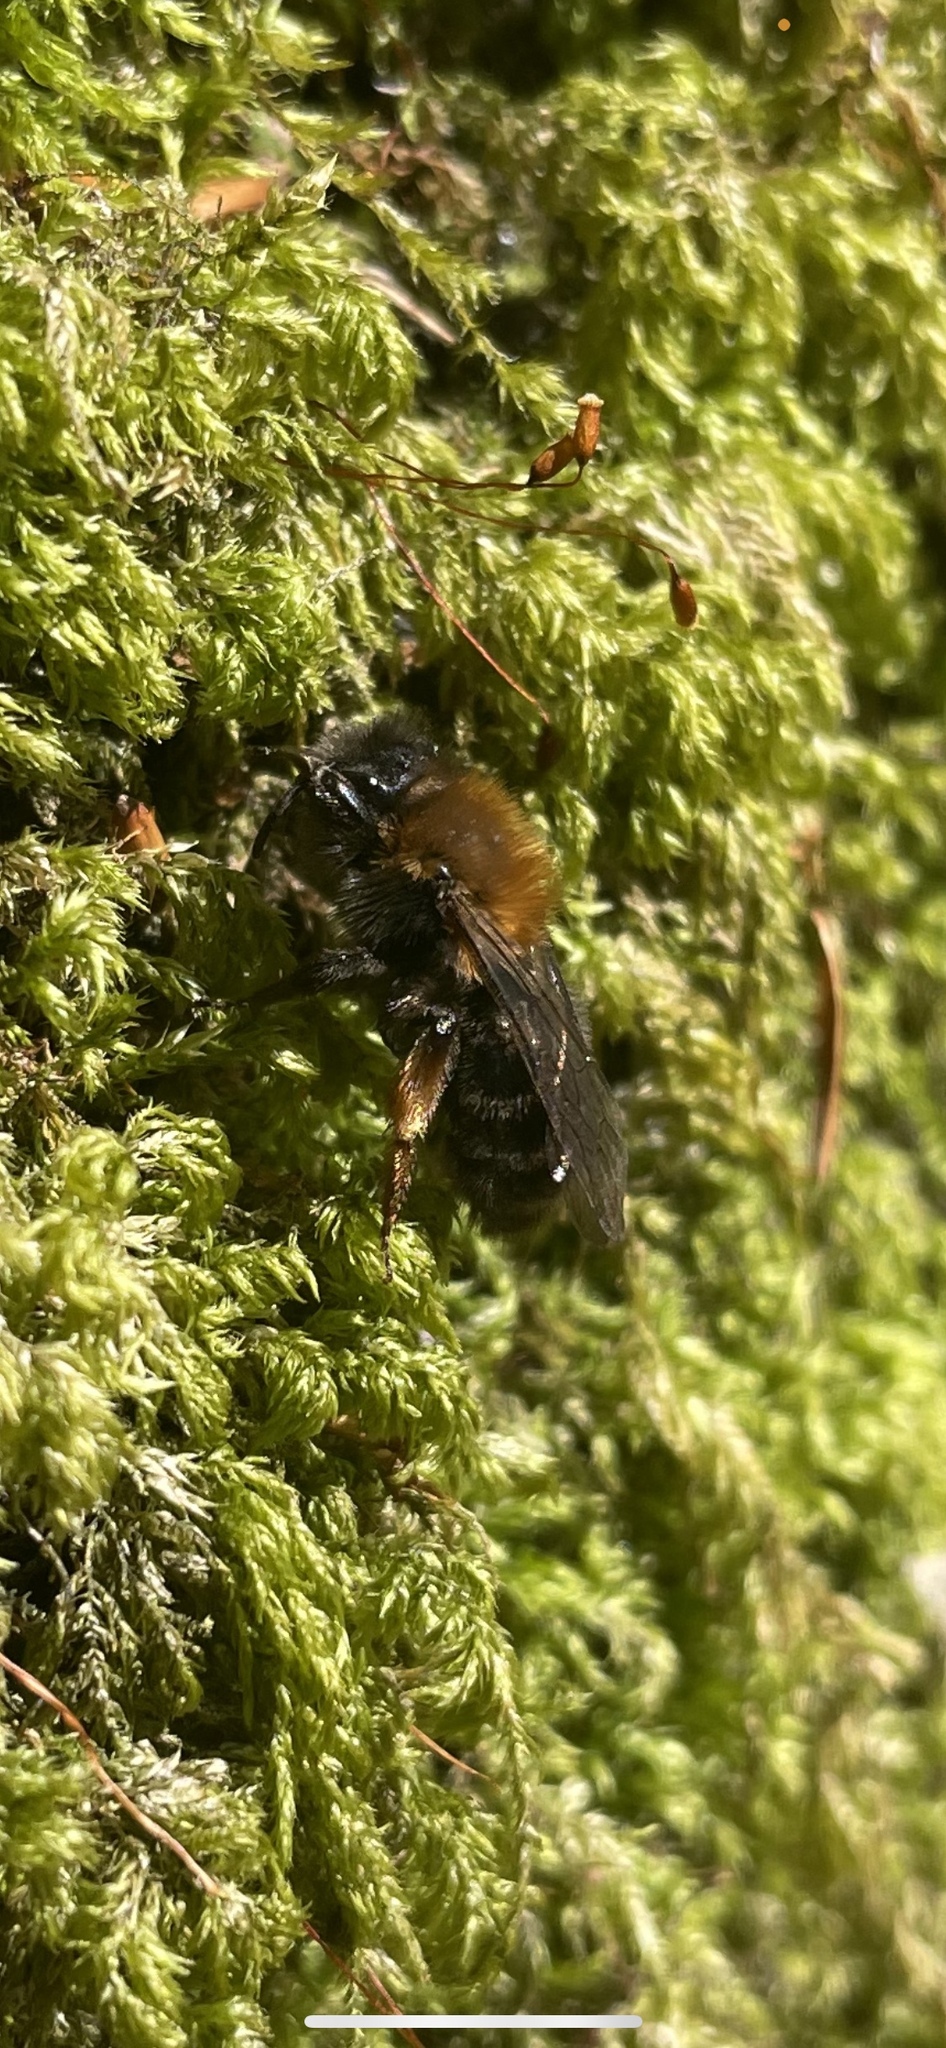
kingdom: Animalia
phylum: Arthropoda
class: Insecta
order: Hymenoptera
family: Andrenidae
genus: Andrena
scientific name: Andrena clarkella
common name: Clarke's mining bee
